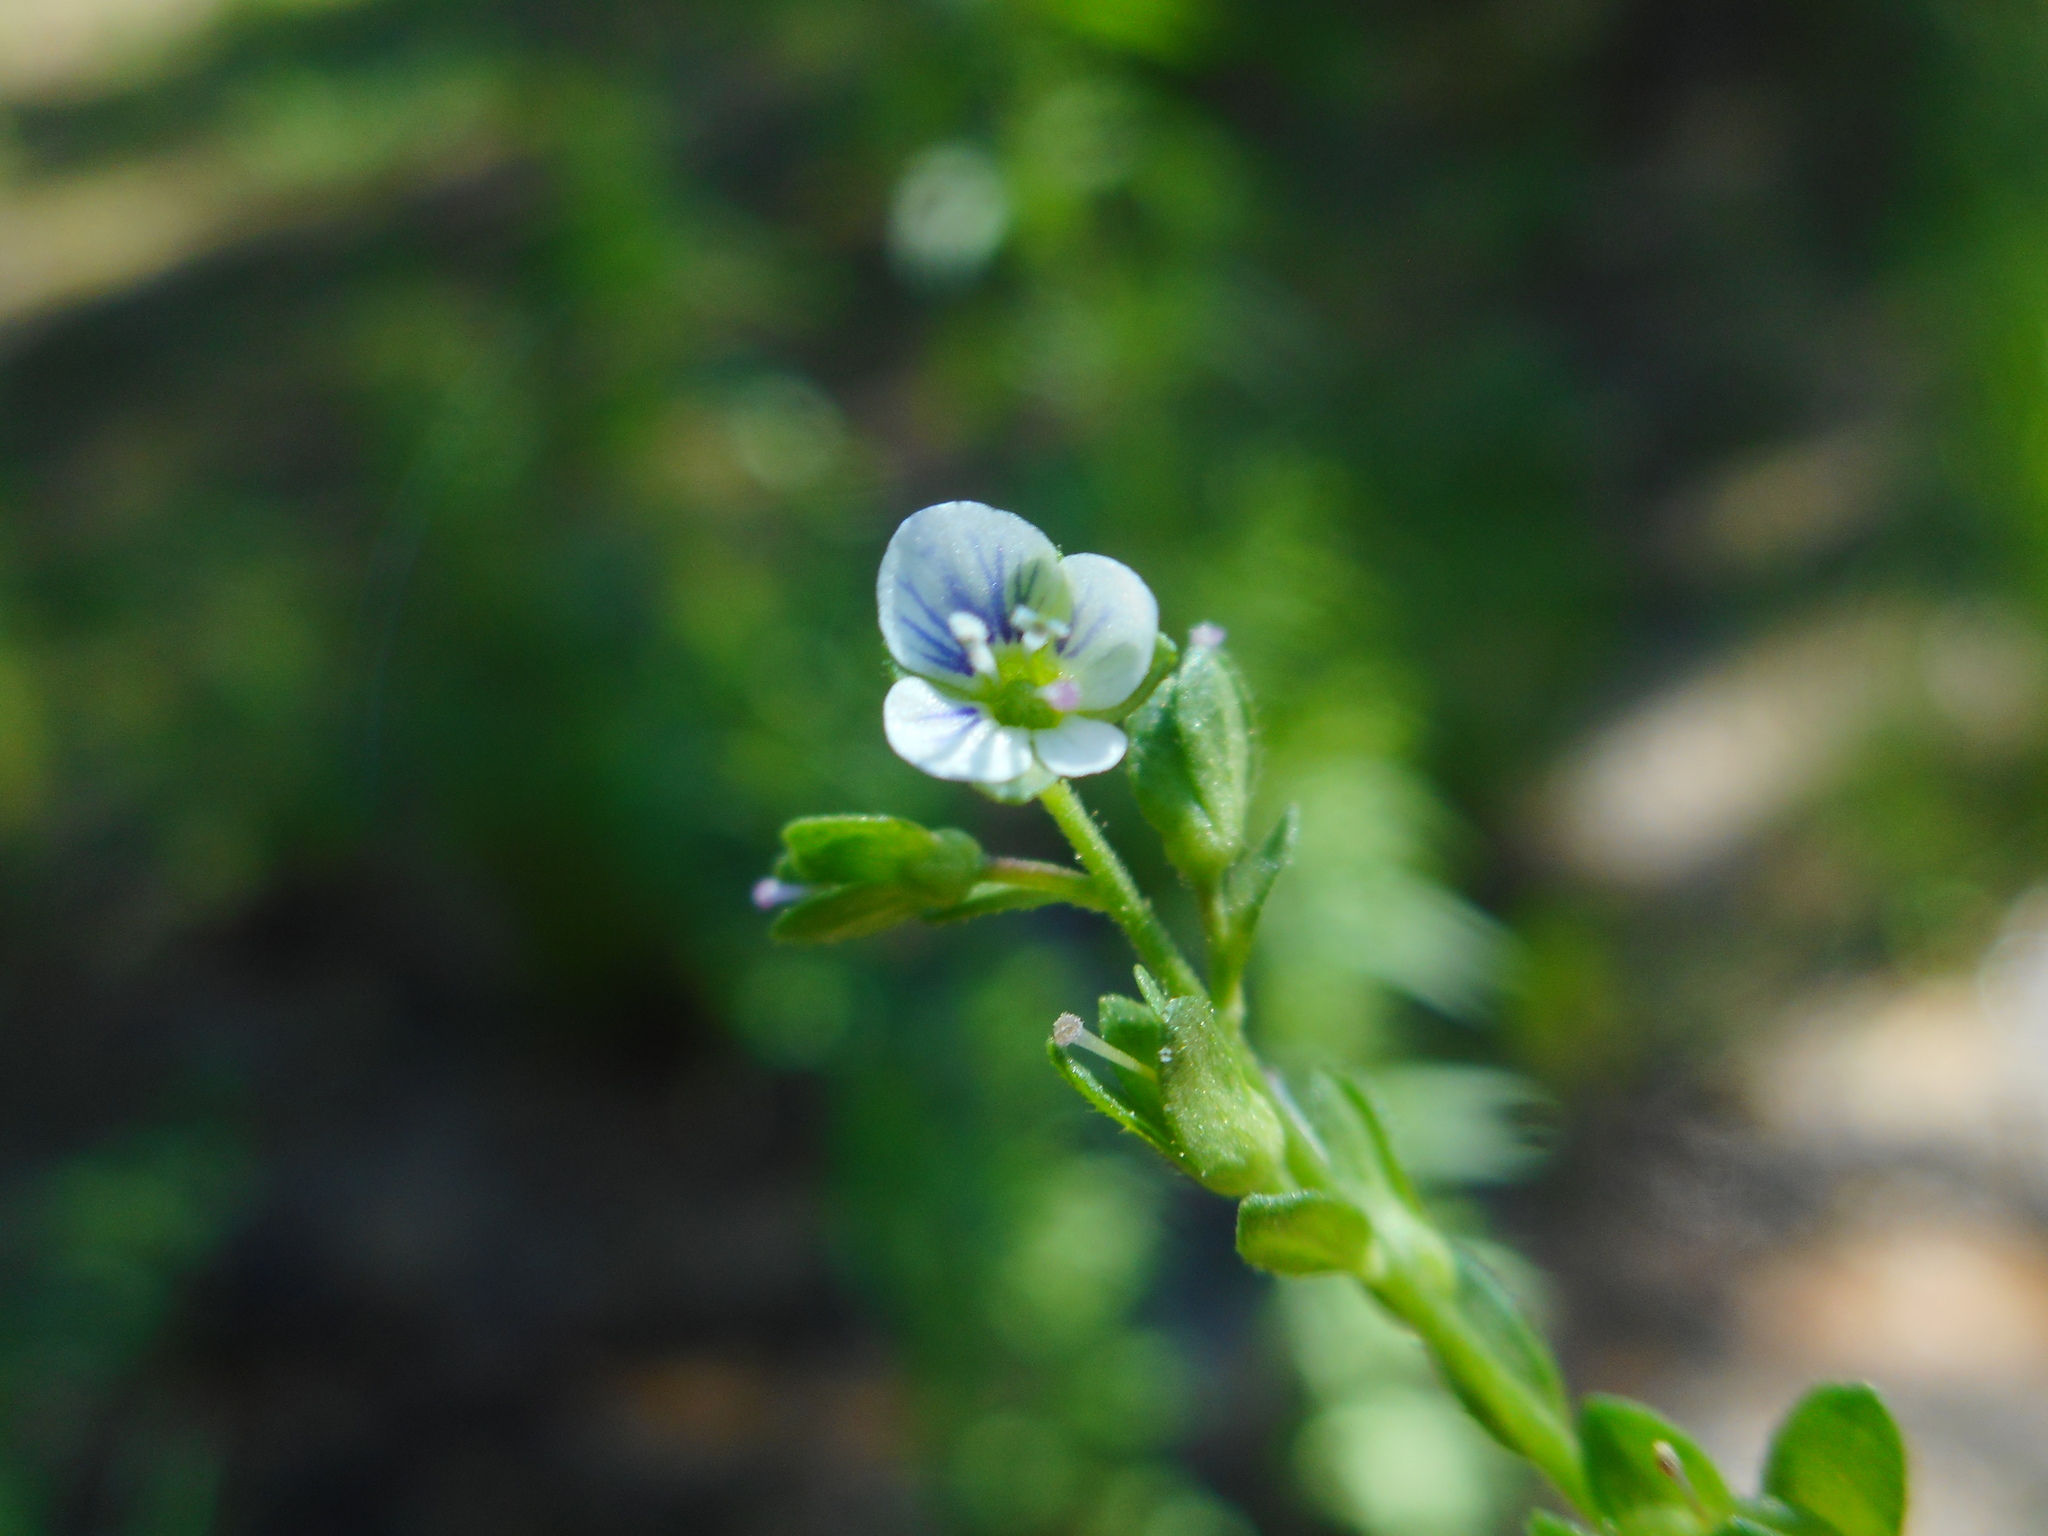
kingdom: Plantae
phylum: Tracheophyta
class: Magnoliopsida
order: Lamiales
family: Plantaginaceae
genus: Veronica
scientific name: Veronica serpyllifolia
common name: Thyme-leaved speedwell
